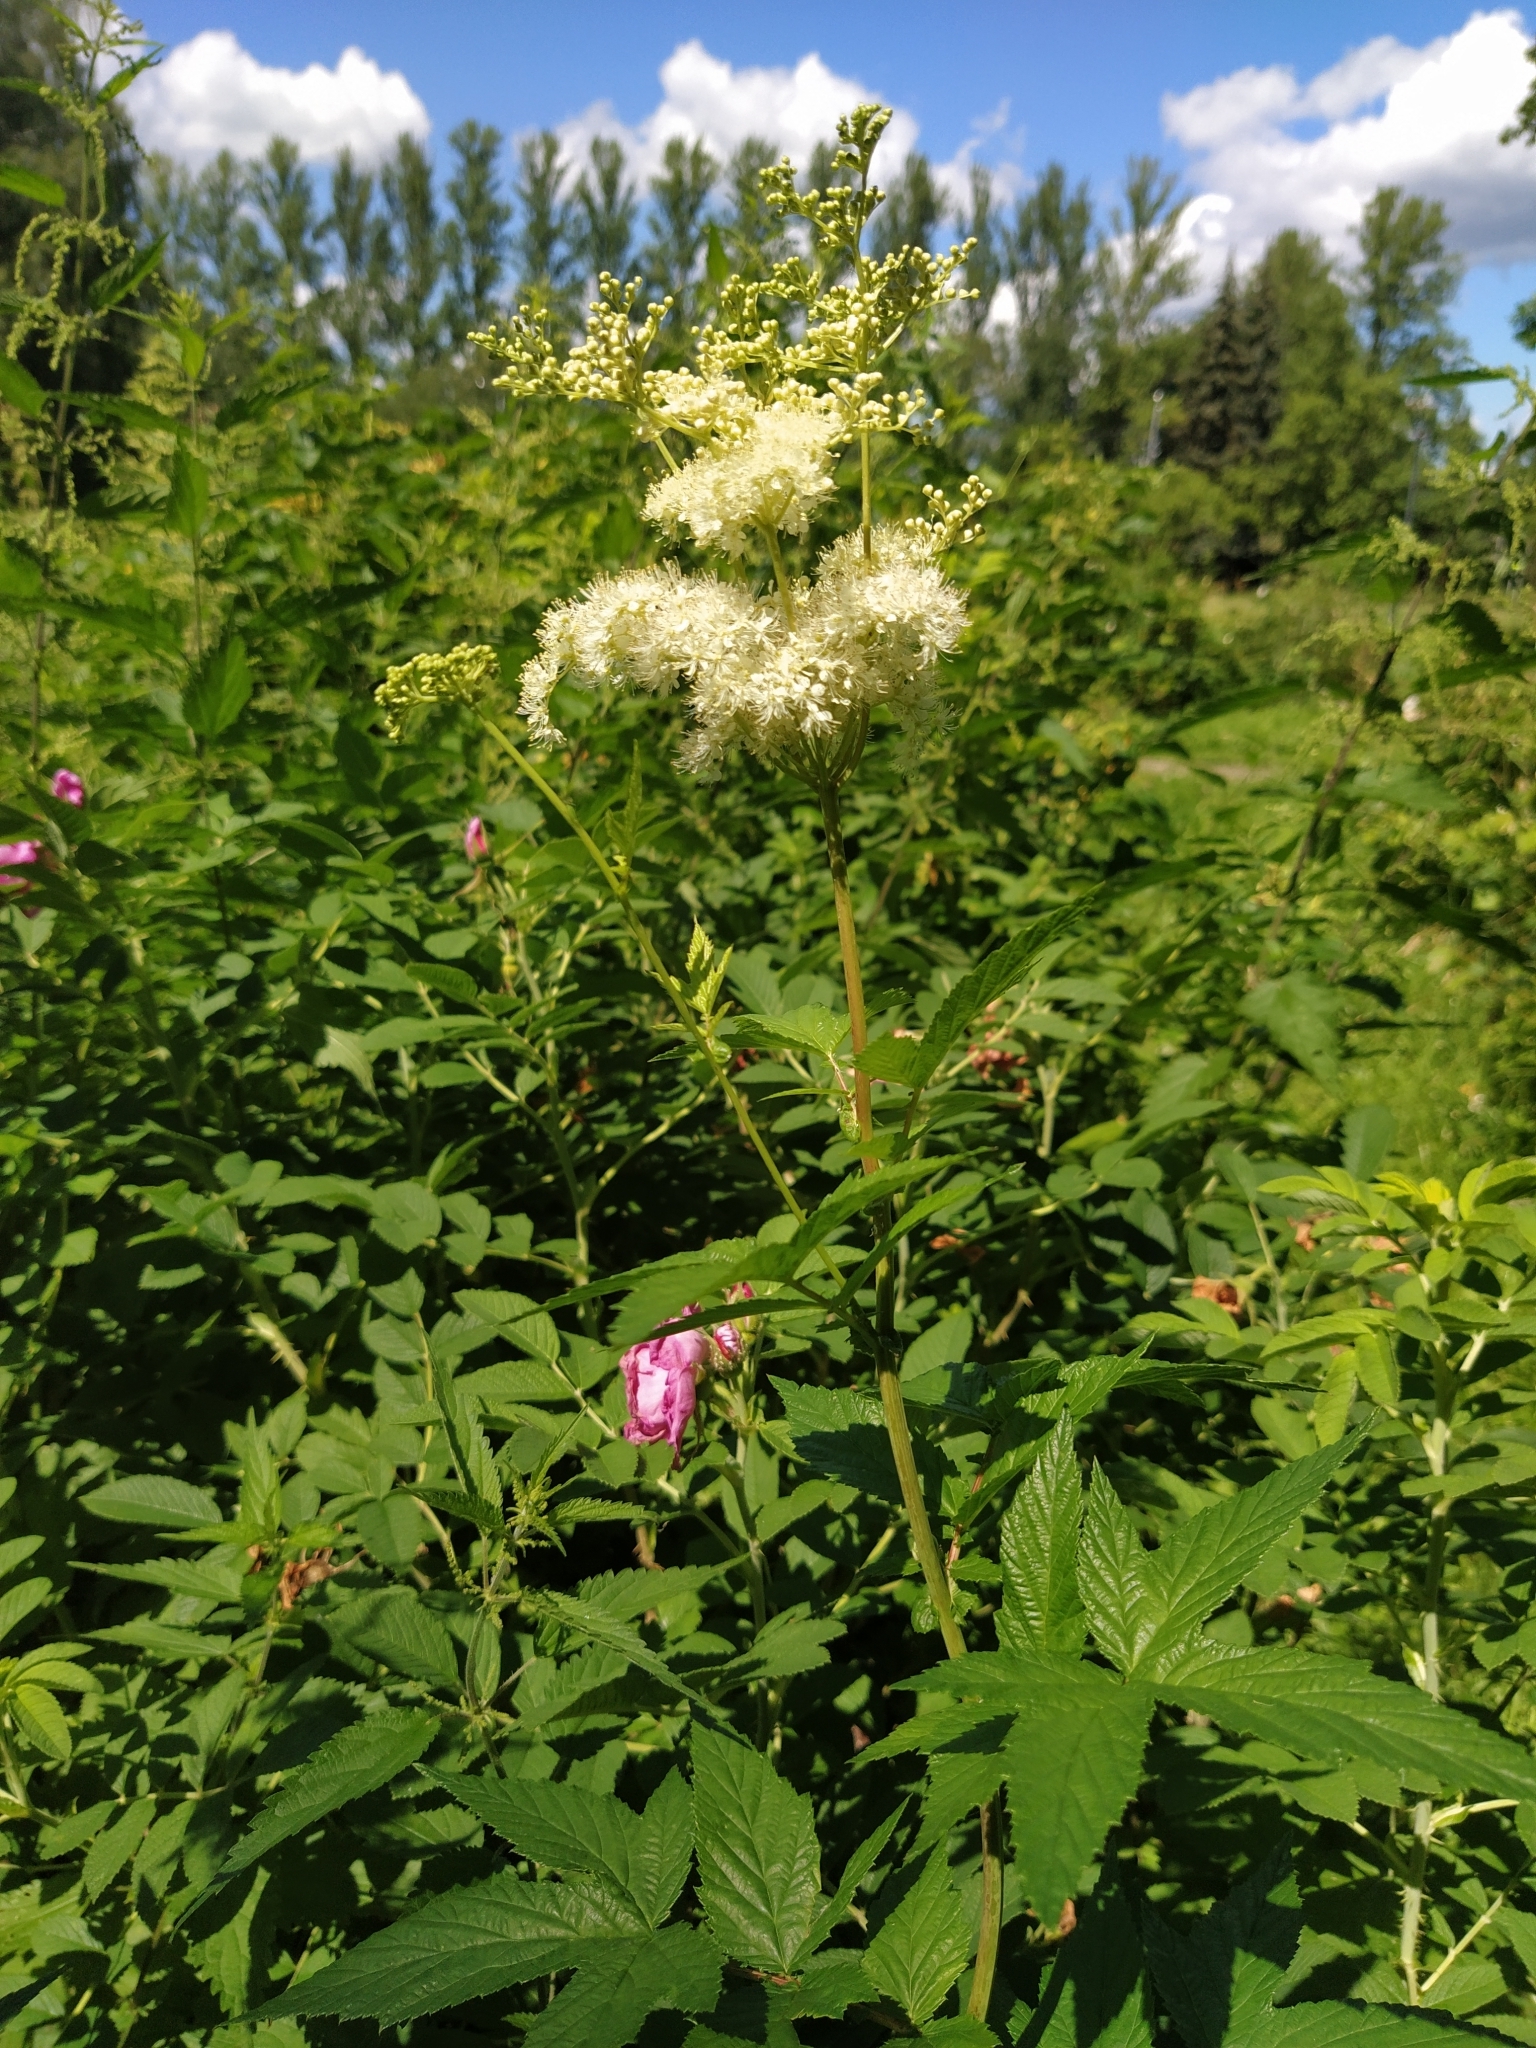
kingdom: Plantae
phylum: Tracheophyta
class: Magnoliopsida
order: Rosales
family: Rosaceae
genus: Filipendula
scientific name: Filipendula ulmaria
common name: Meadowsweet
